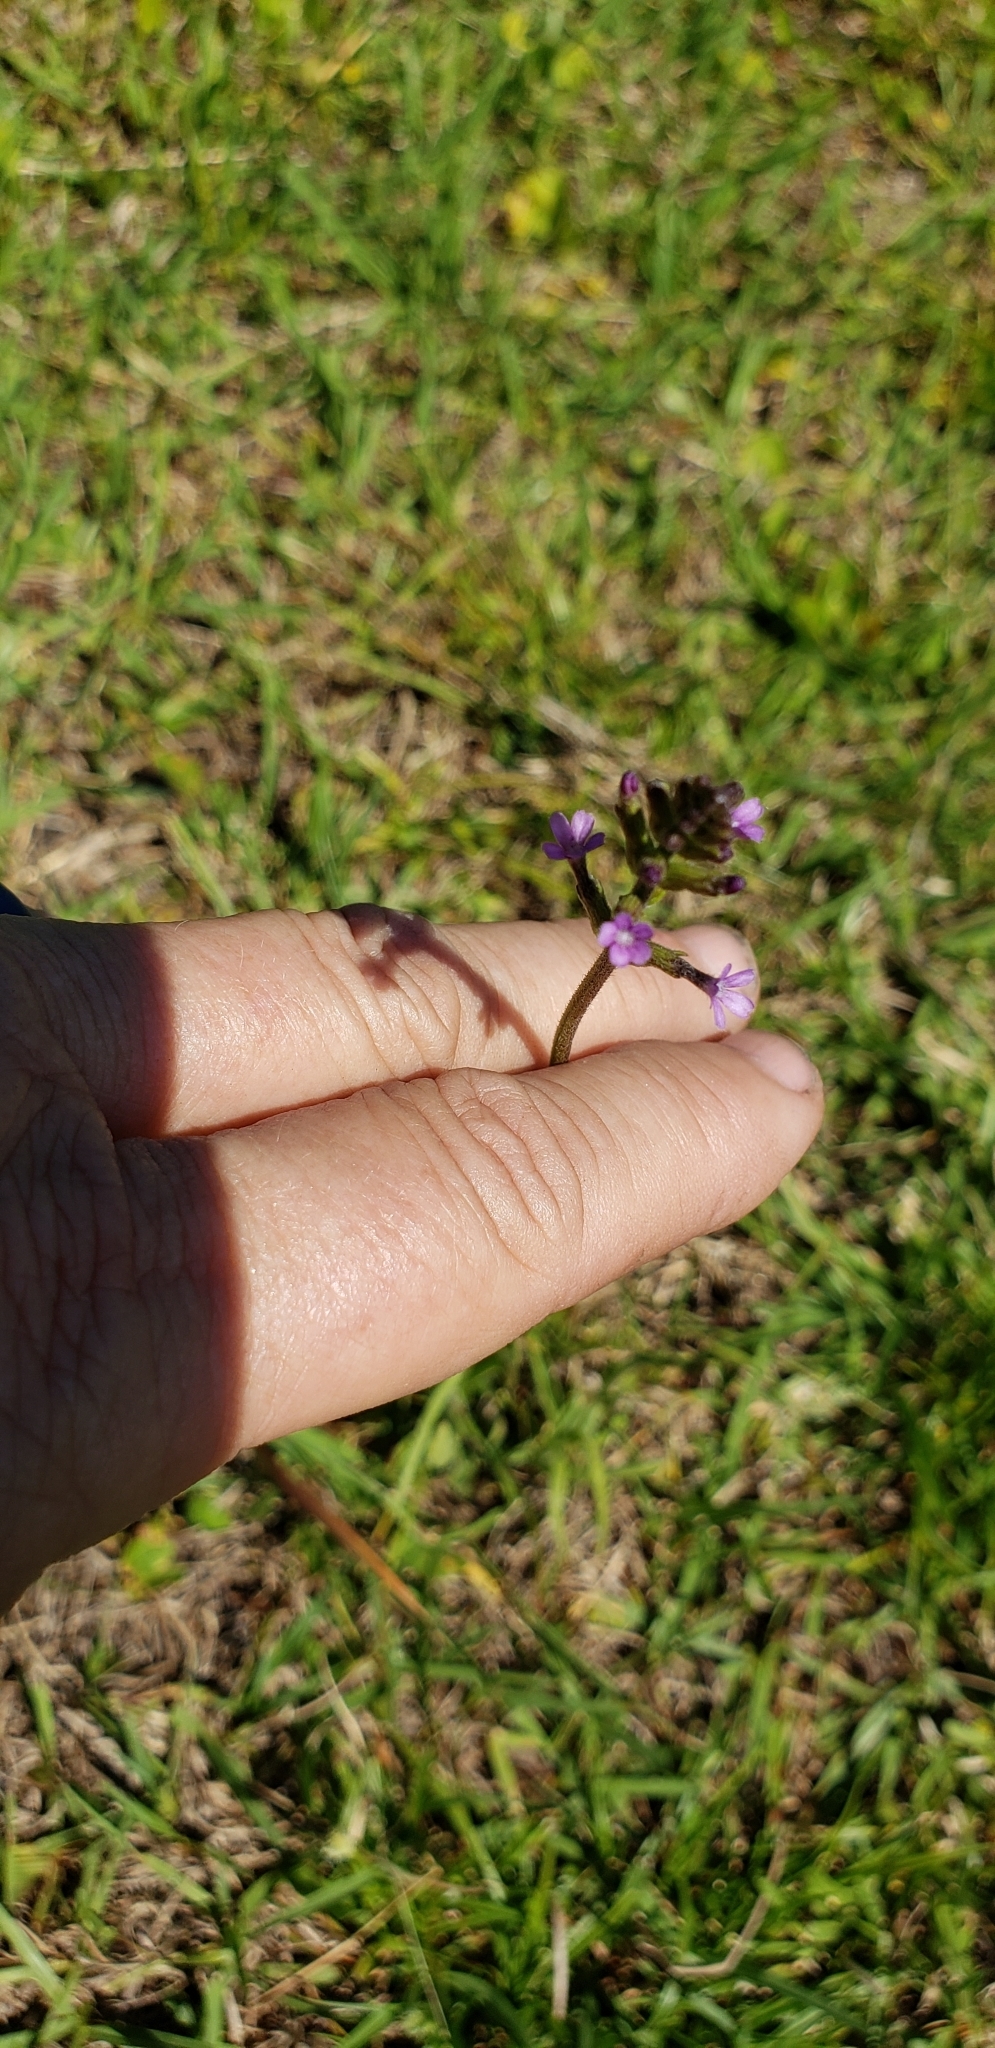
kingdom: Plantae
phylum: Tracheophyta
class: Magnoliopsida
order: Lamiales
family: Orobanchaceae
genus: Buchnera
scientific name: Buchnera floridana
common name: Florida bluehearts
